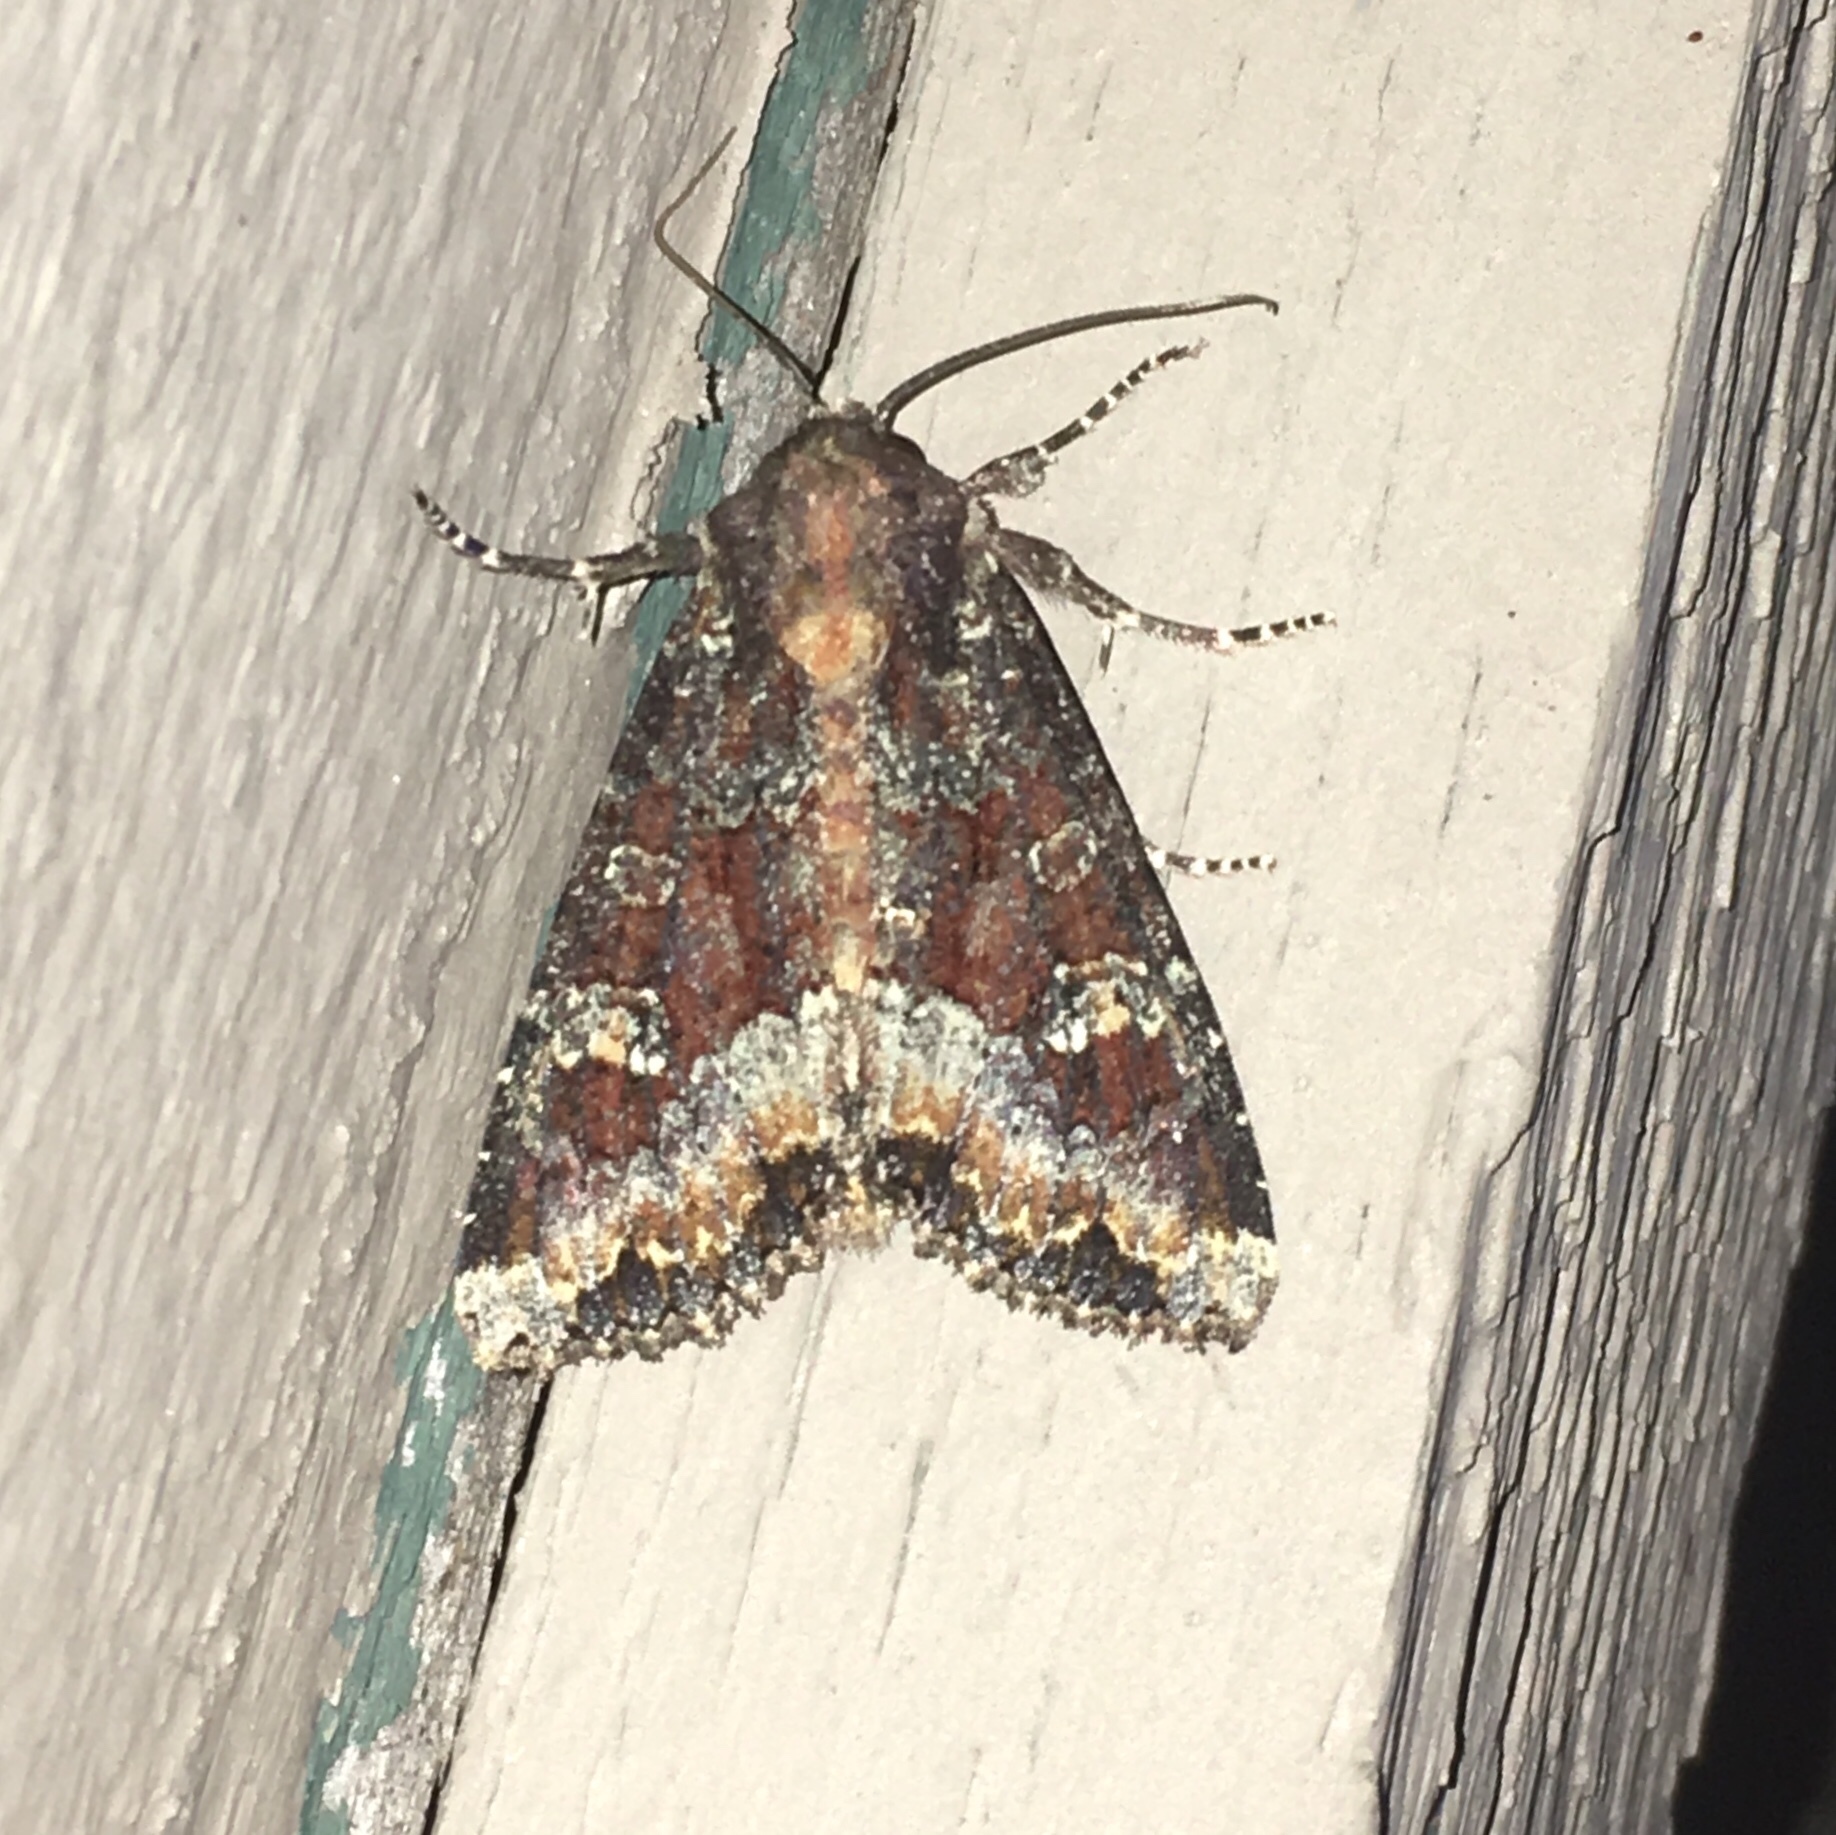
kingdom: Animalia
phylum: Arthropoda
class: Insecta
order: Lepidoptera
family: Noctuidae
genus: Apamea
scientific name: Apamea amputatrix
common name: Yellow-headed cutworm moth
